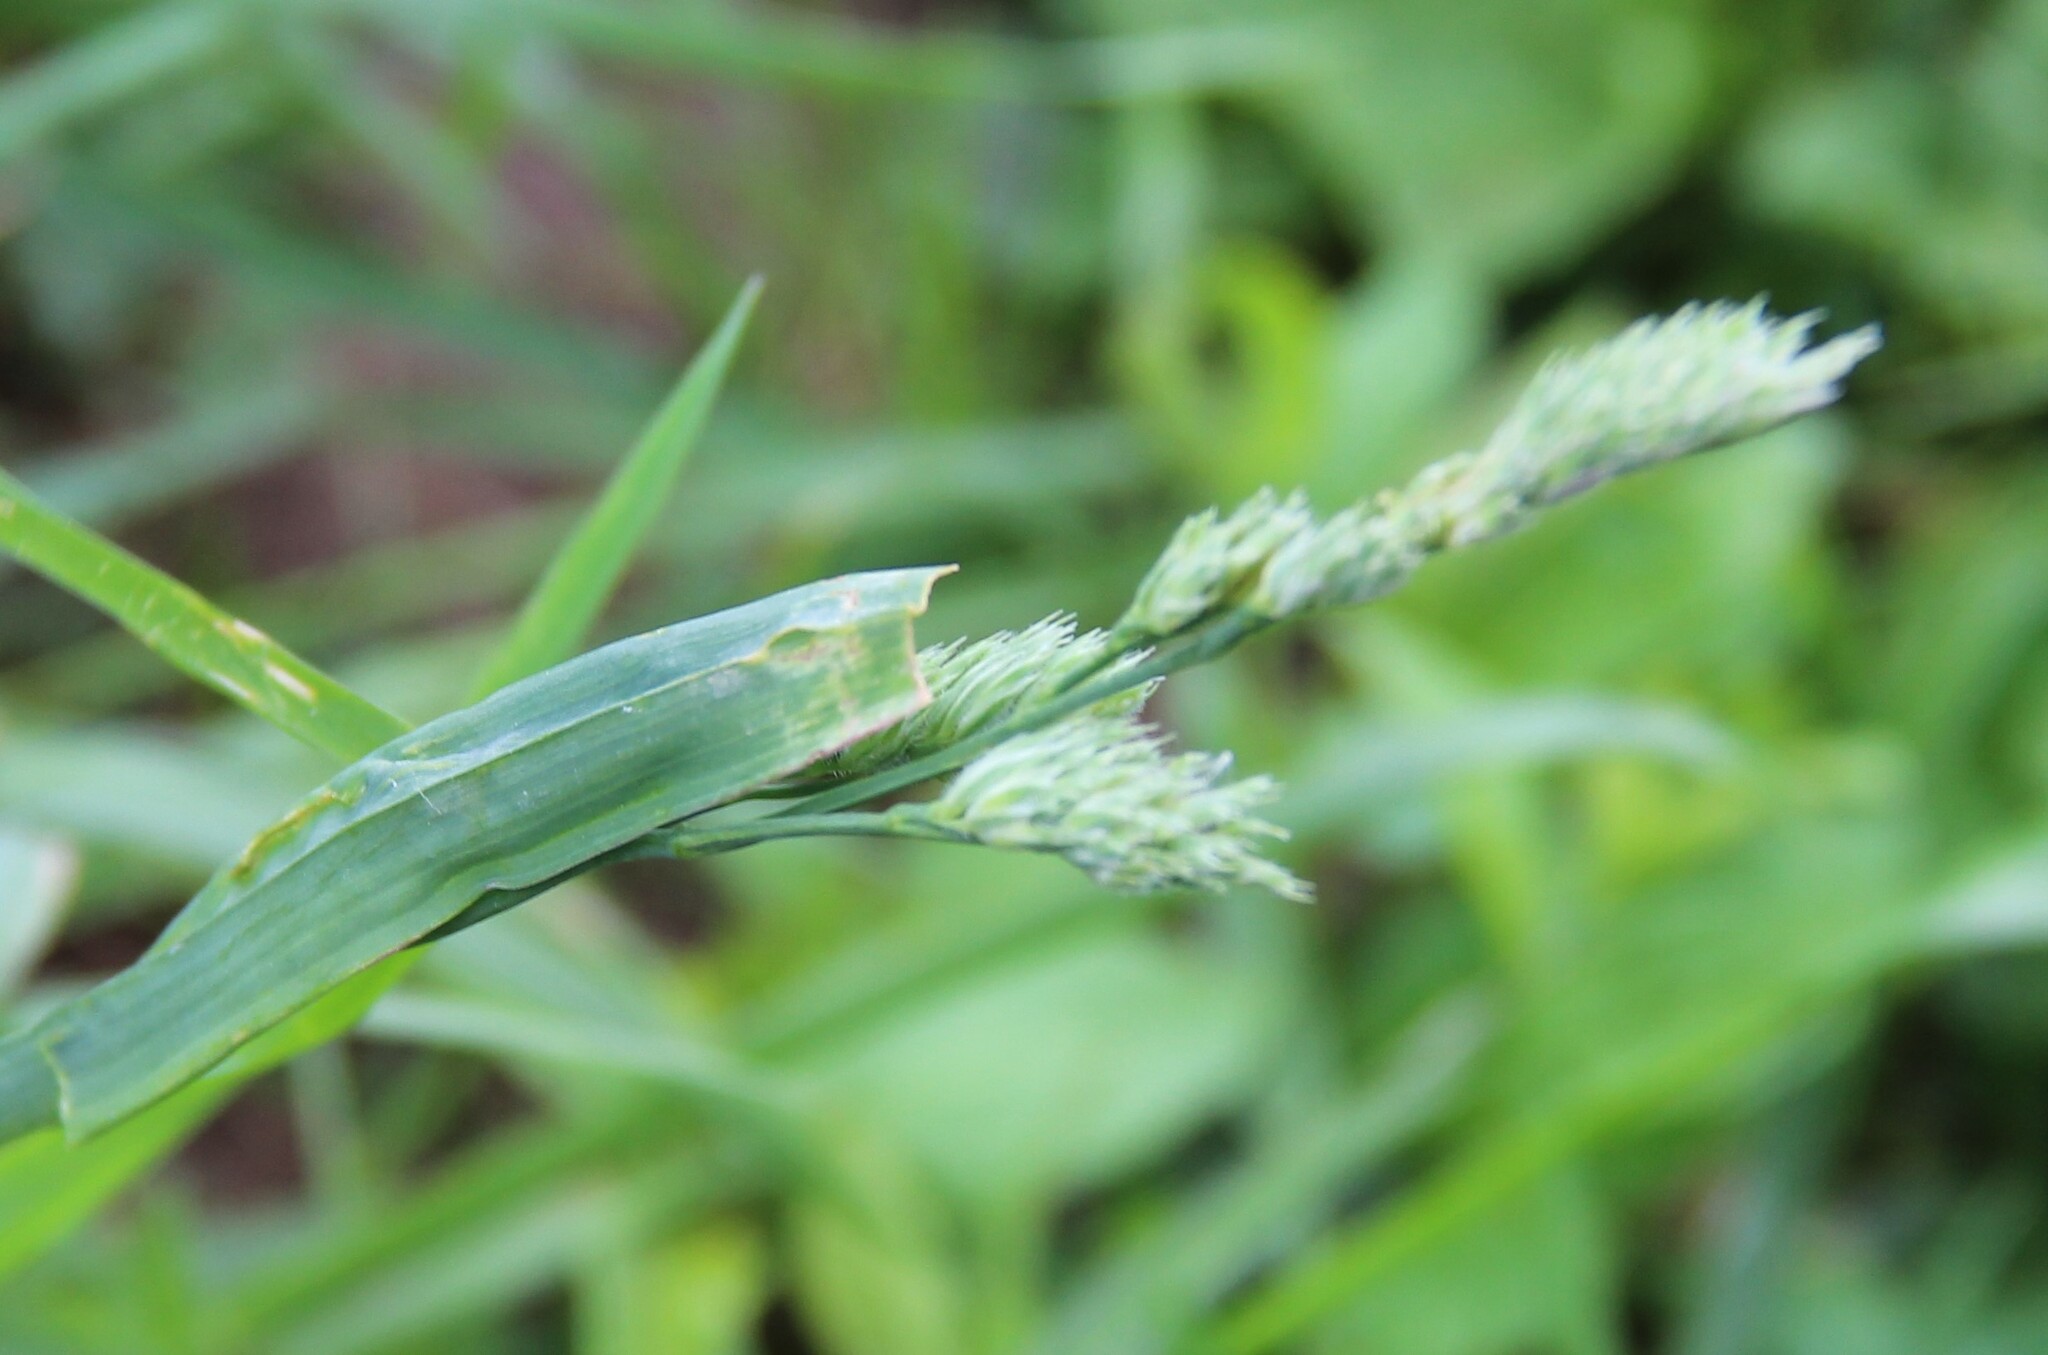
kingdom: Plantae
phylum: Tracheophyta
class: Liliopsida
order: Poales
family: Poaceae
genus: Dactylis
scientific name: Dactylis glomerata
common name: Orchardgrass
